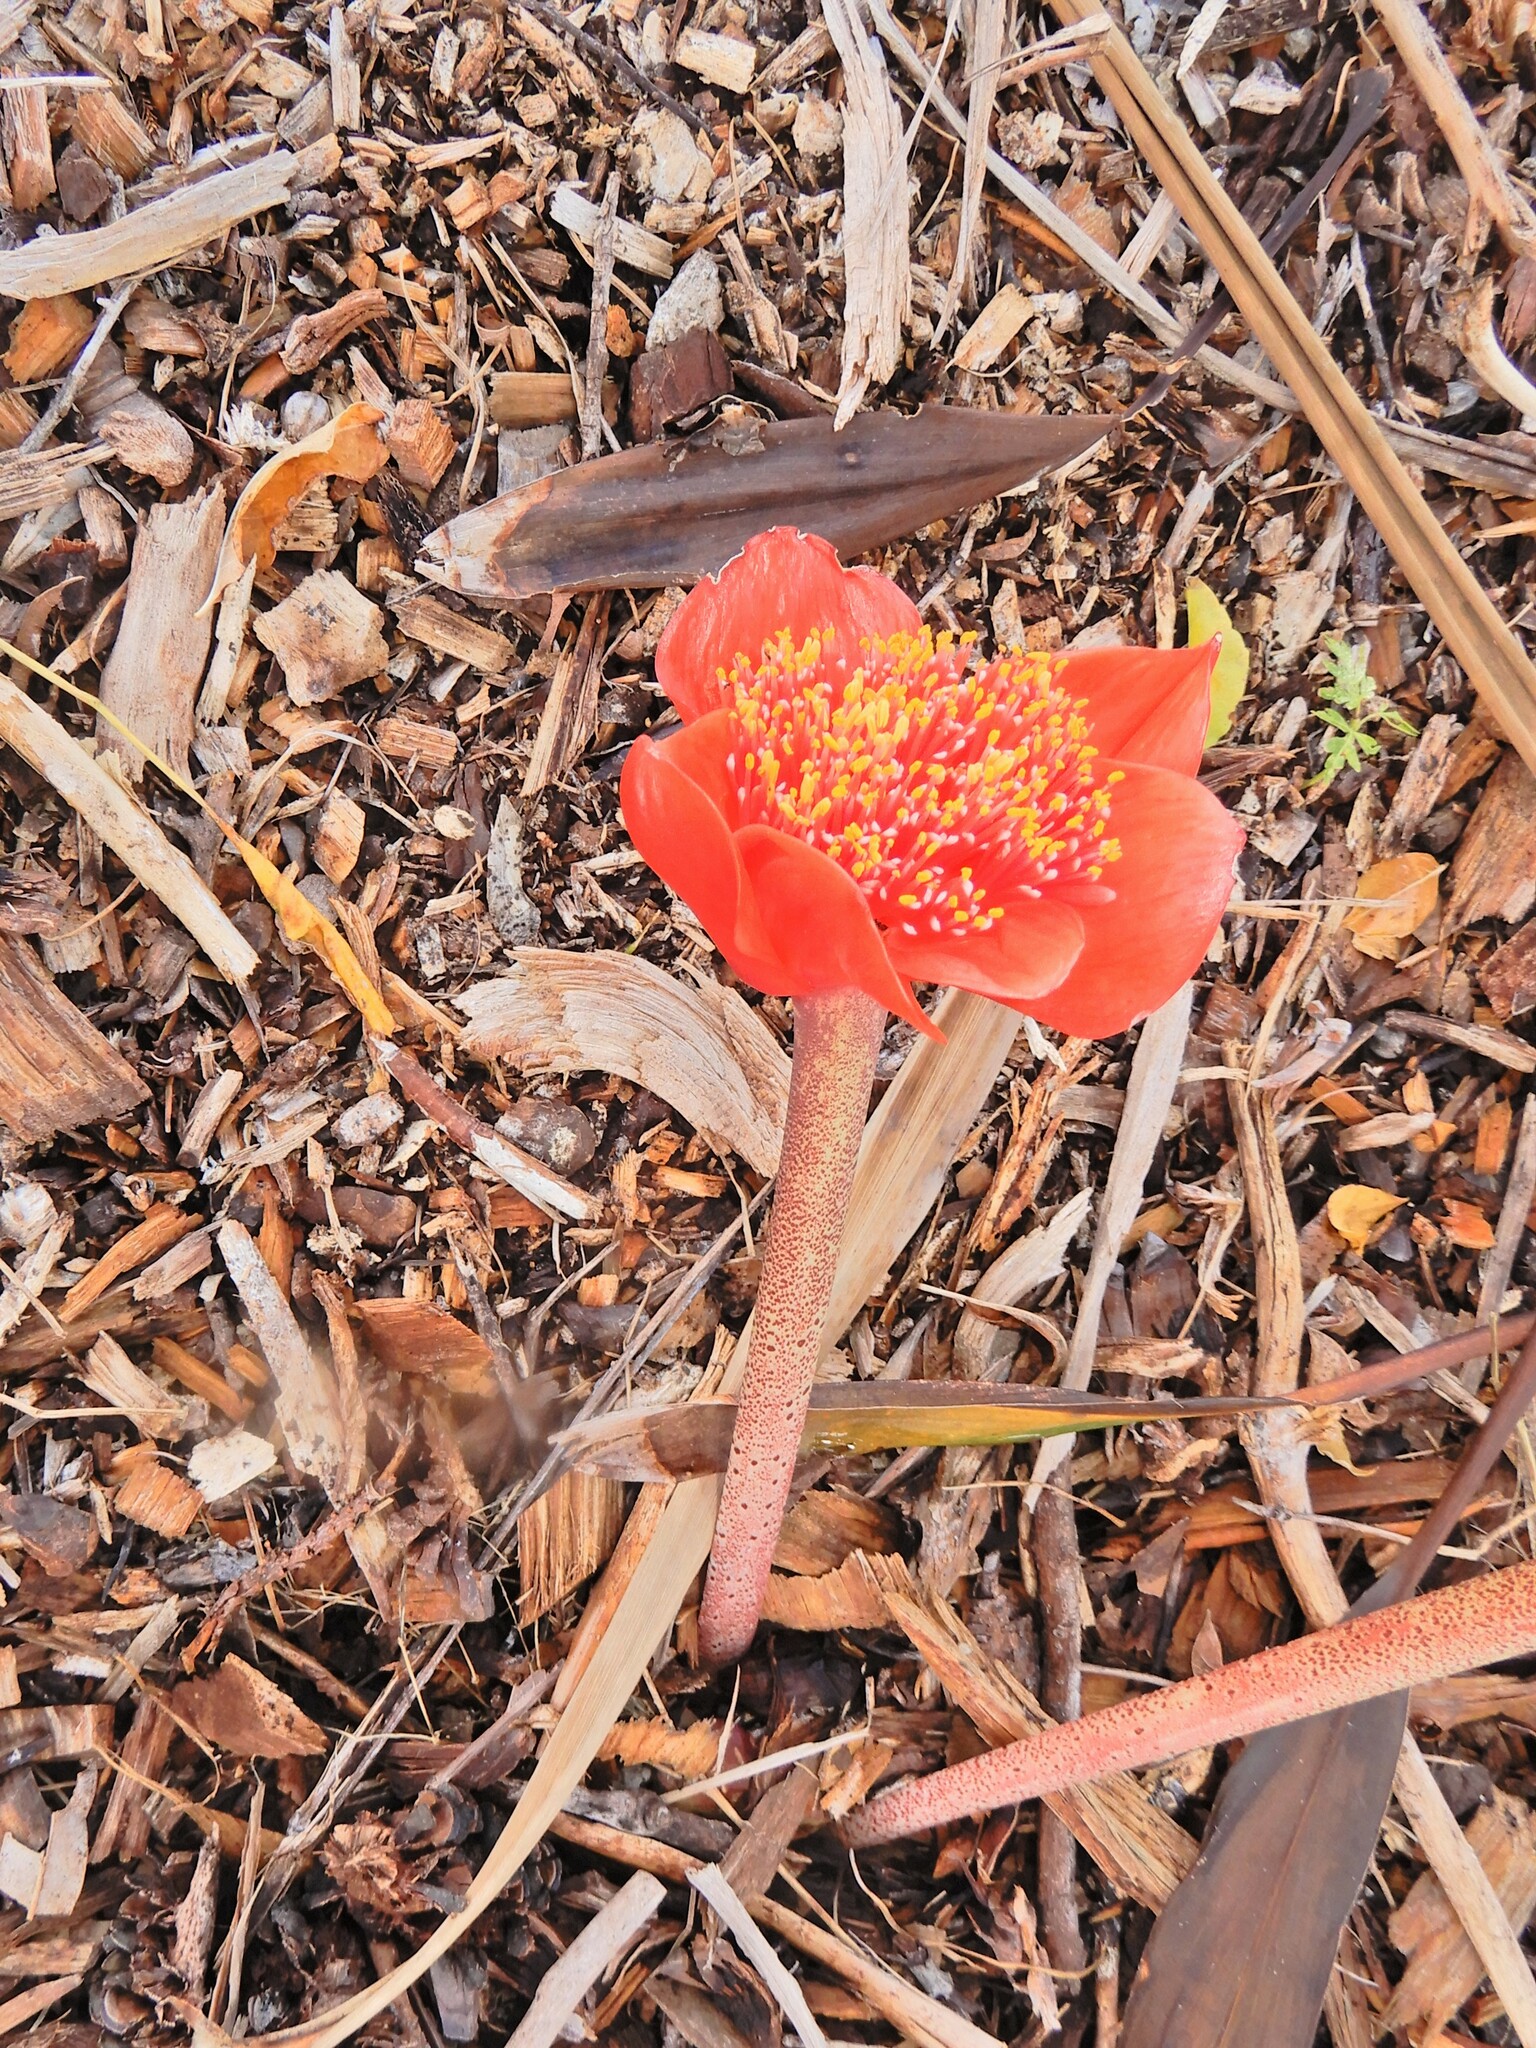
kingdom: Plantae
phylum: Tracheophyta
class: Liliopsida
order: Asparagales
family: Amaryllidaceae
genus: Haemanthus
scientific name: Haemanthus coccineus
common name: Cape-tulip
